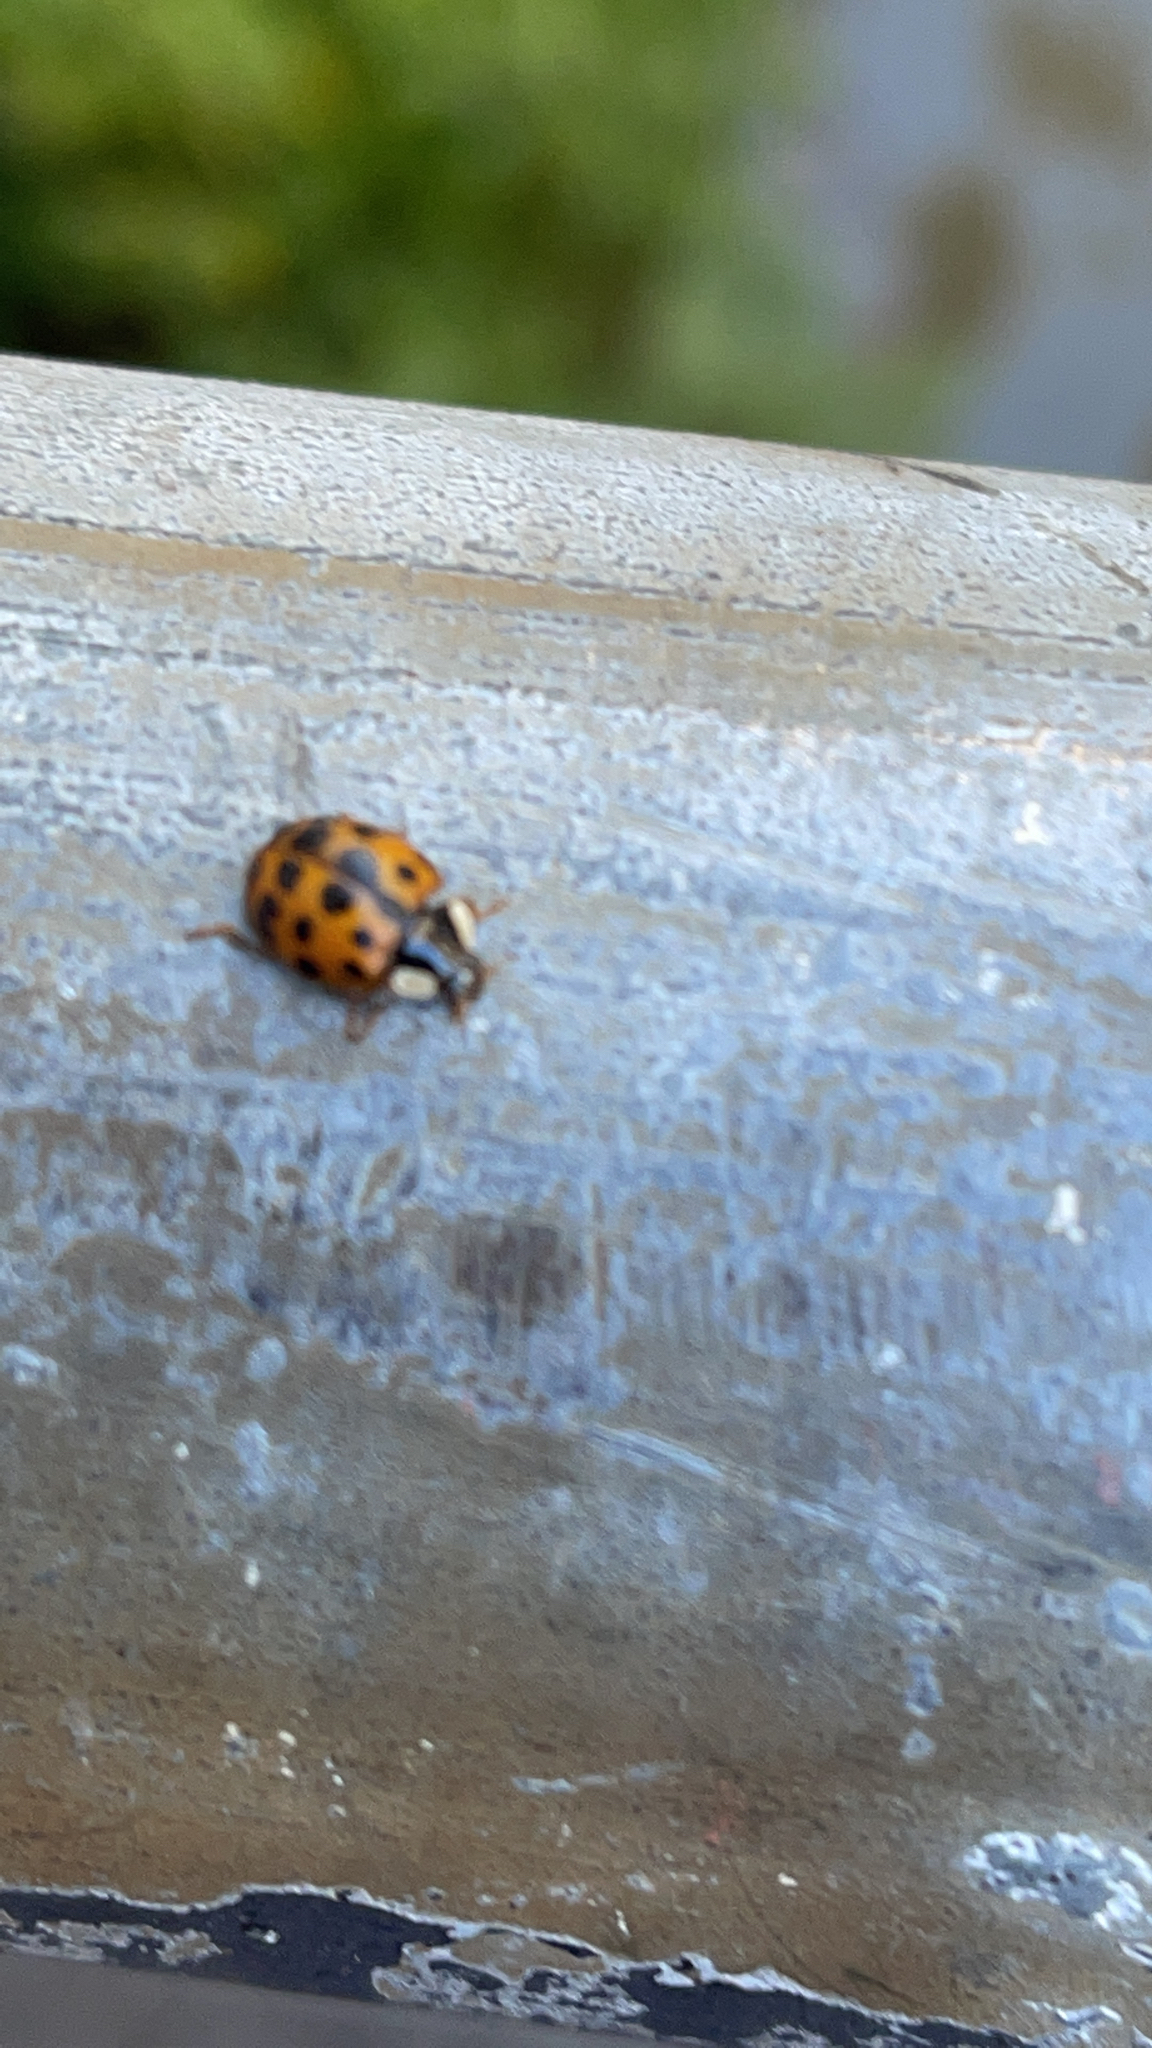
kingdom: Animalia
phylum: Arthropoda
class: Insecta
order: Coleoptera
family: Coccinellidae
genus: Harmonia
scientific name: Harmonia axyridis
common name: Harlequin ladybird
